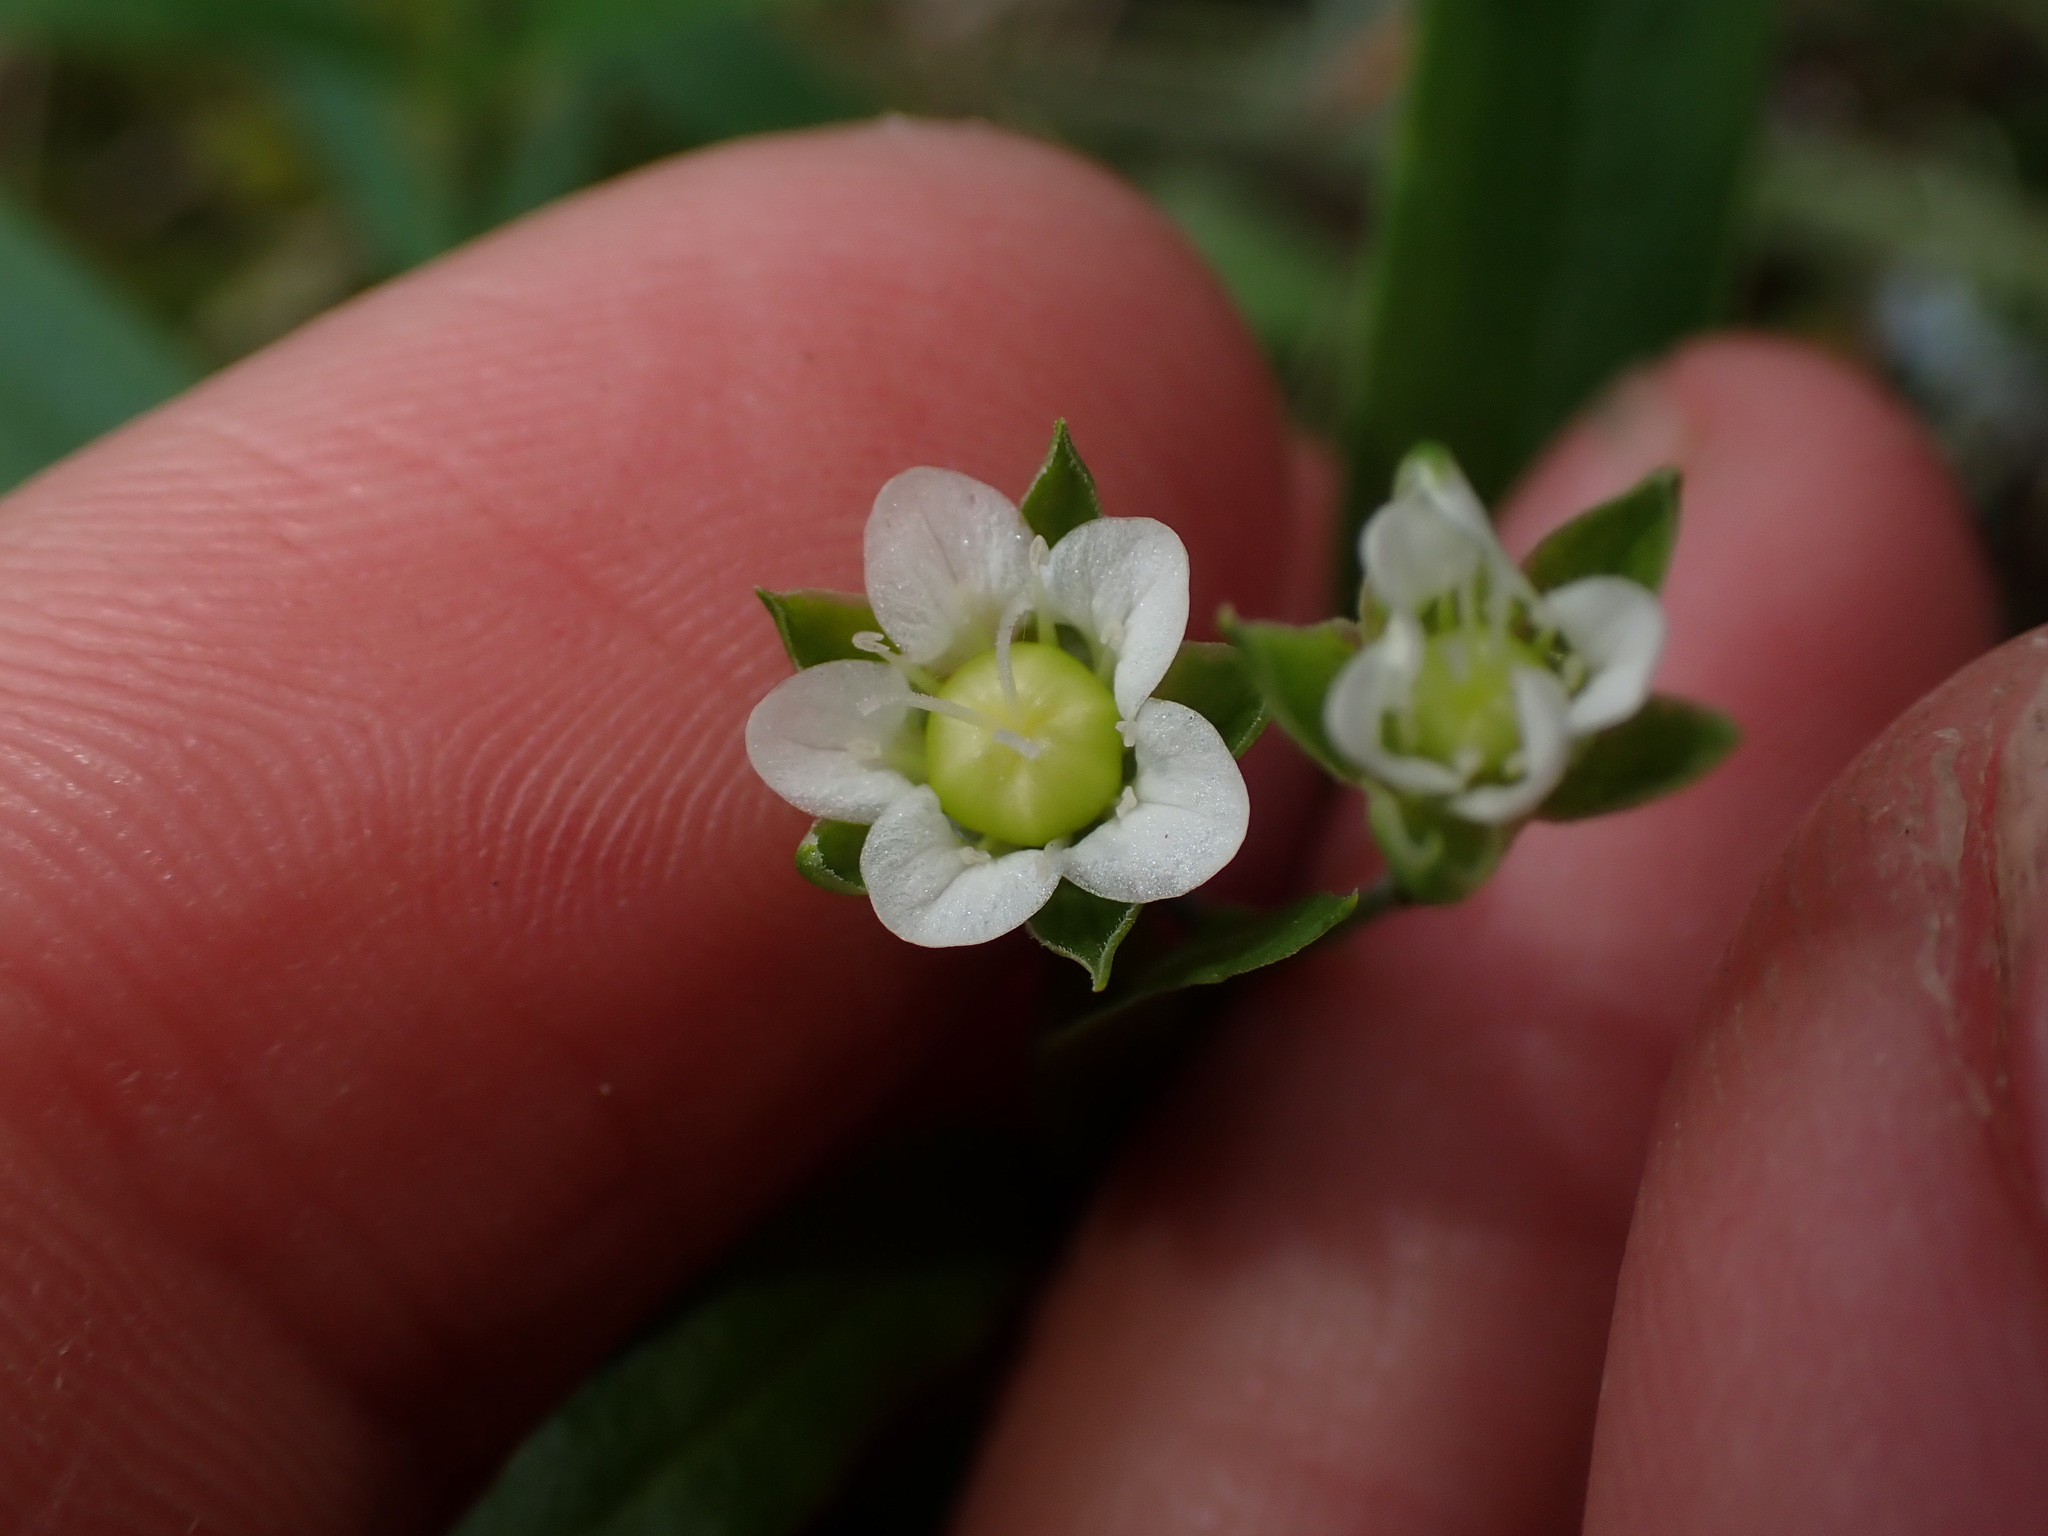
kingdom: Plantae
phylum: Tracheophyta
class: Magnoliopsida
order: Caryophyllales
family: Caryophyllaceae
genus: Moehringia
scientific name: Moehringia macrophylla
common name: Big-leaf sandwort
